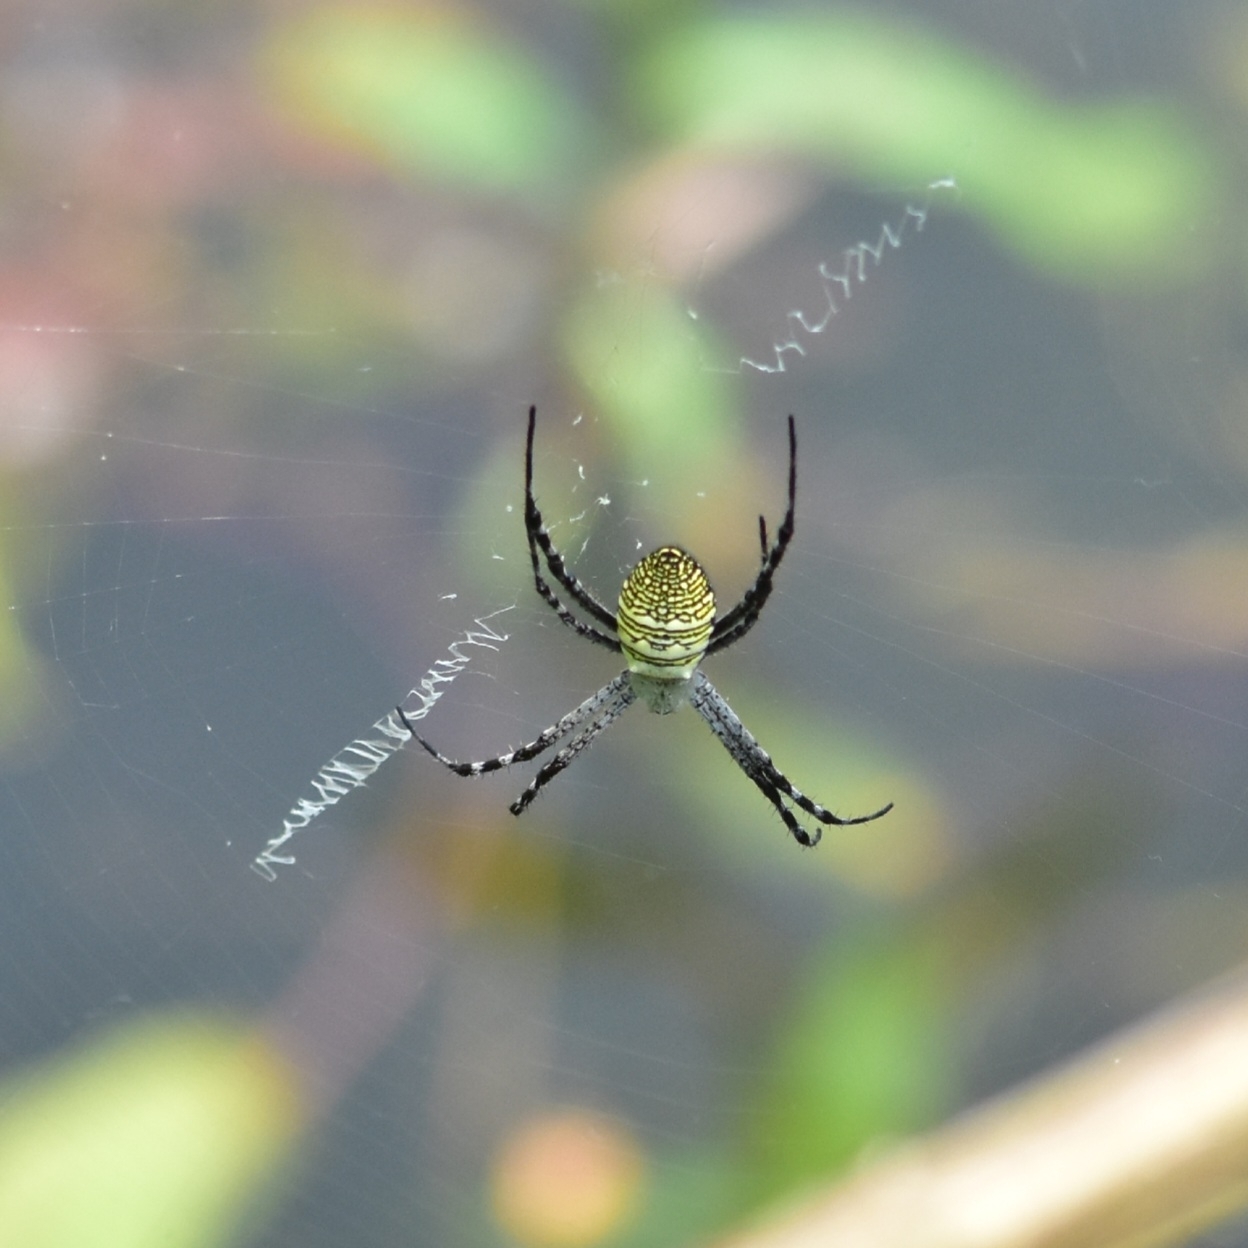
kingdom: Animalia
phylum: Arthropoda
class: Arachnida
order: Araneae
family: Araneidae
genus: Argiope
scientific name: Argiope aemula
